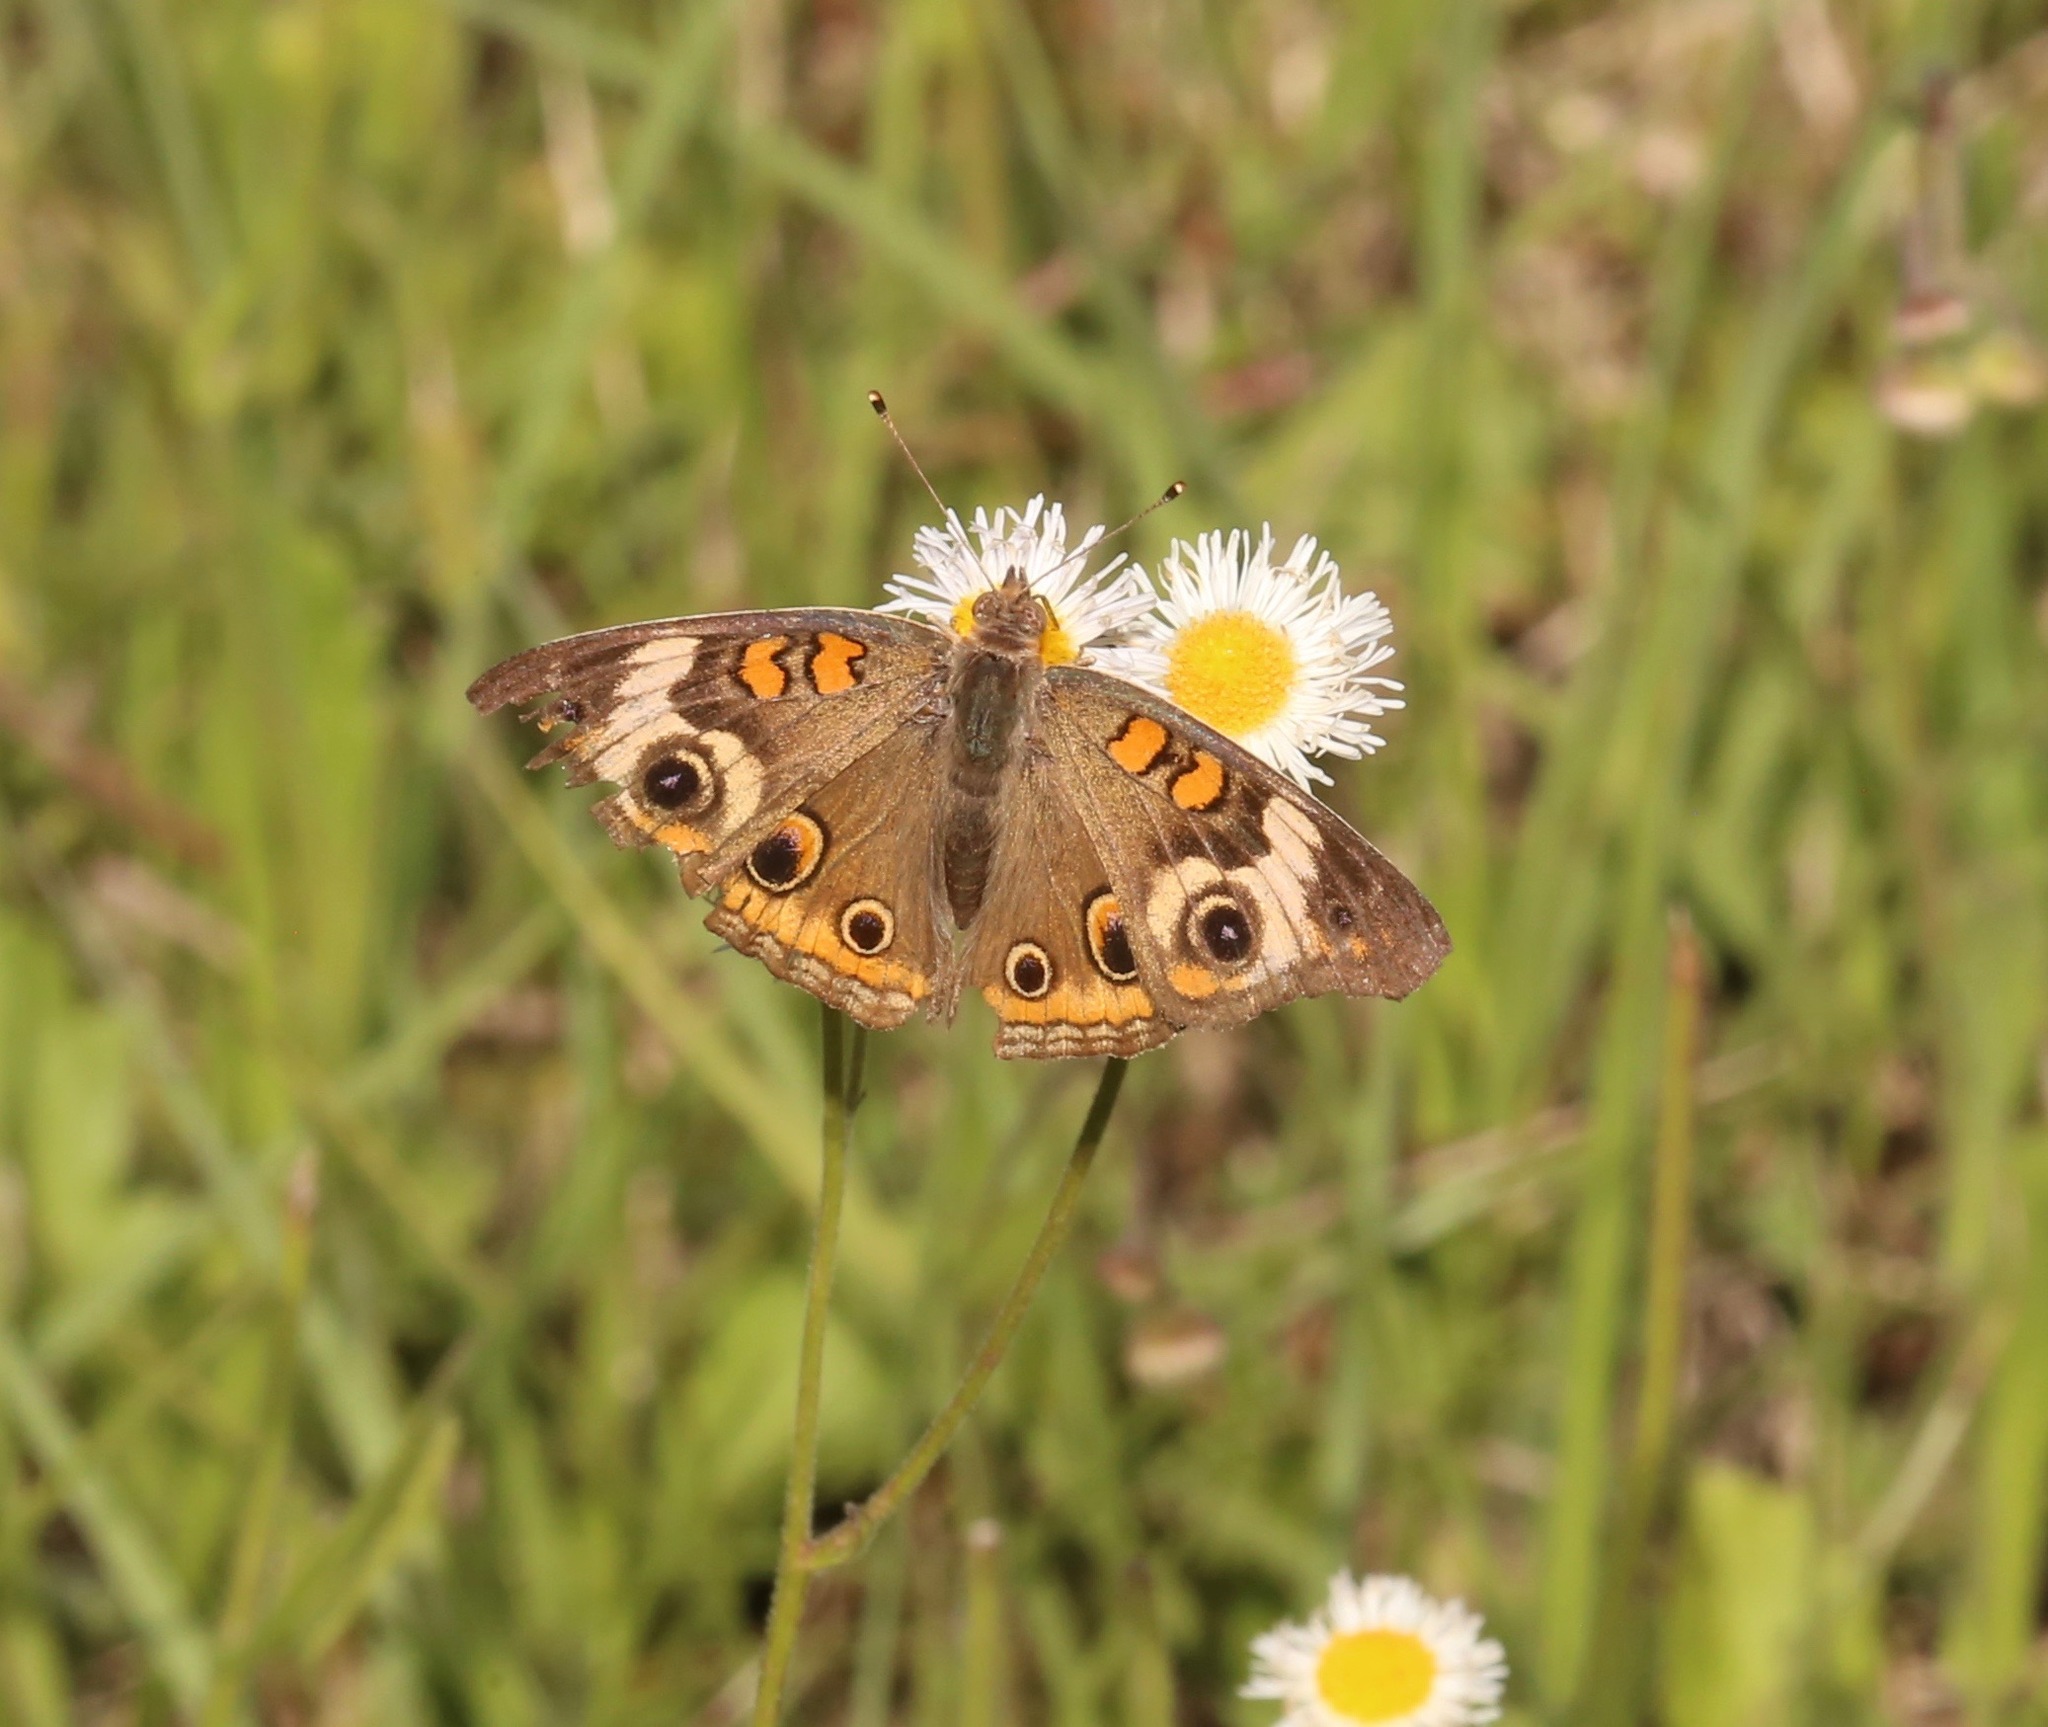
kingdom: Animalia
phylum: Arthropoda
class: Insecta
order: Lepidoptera
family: Nymphalidae
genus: Junonia
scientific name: Junonia coenia
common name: Common buckeye
